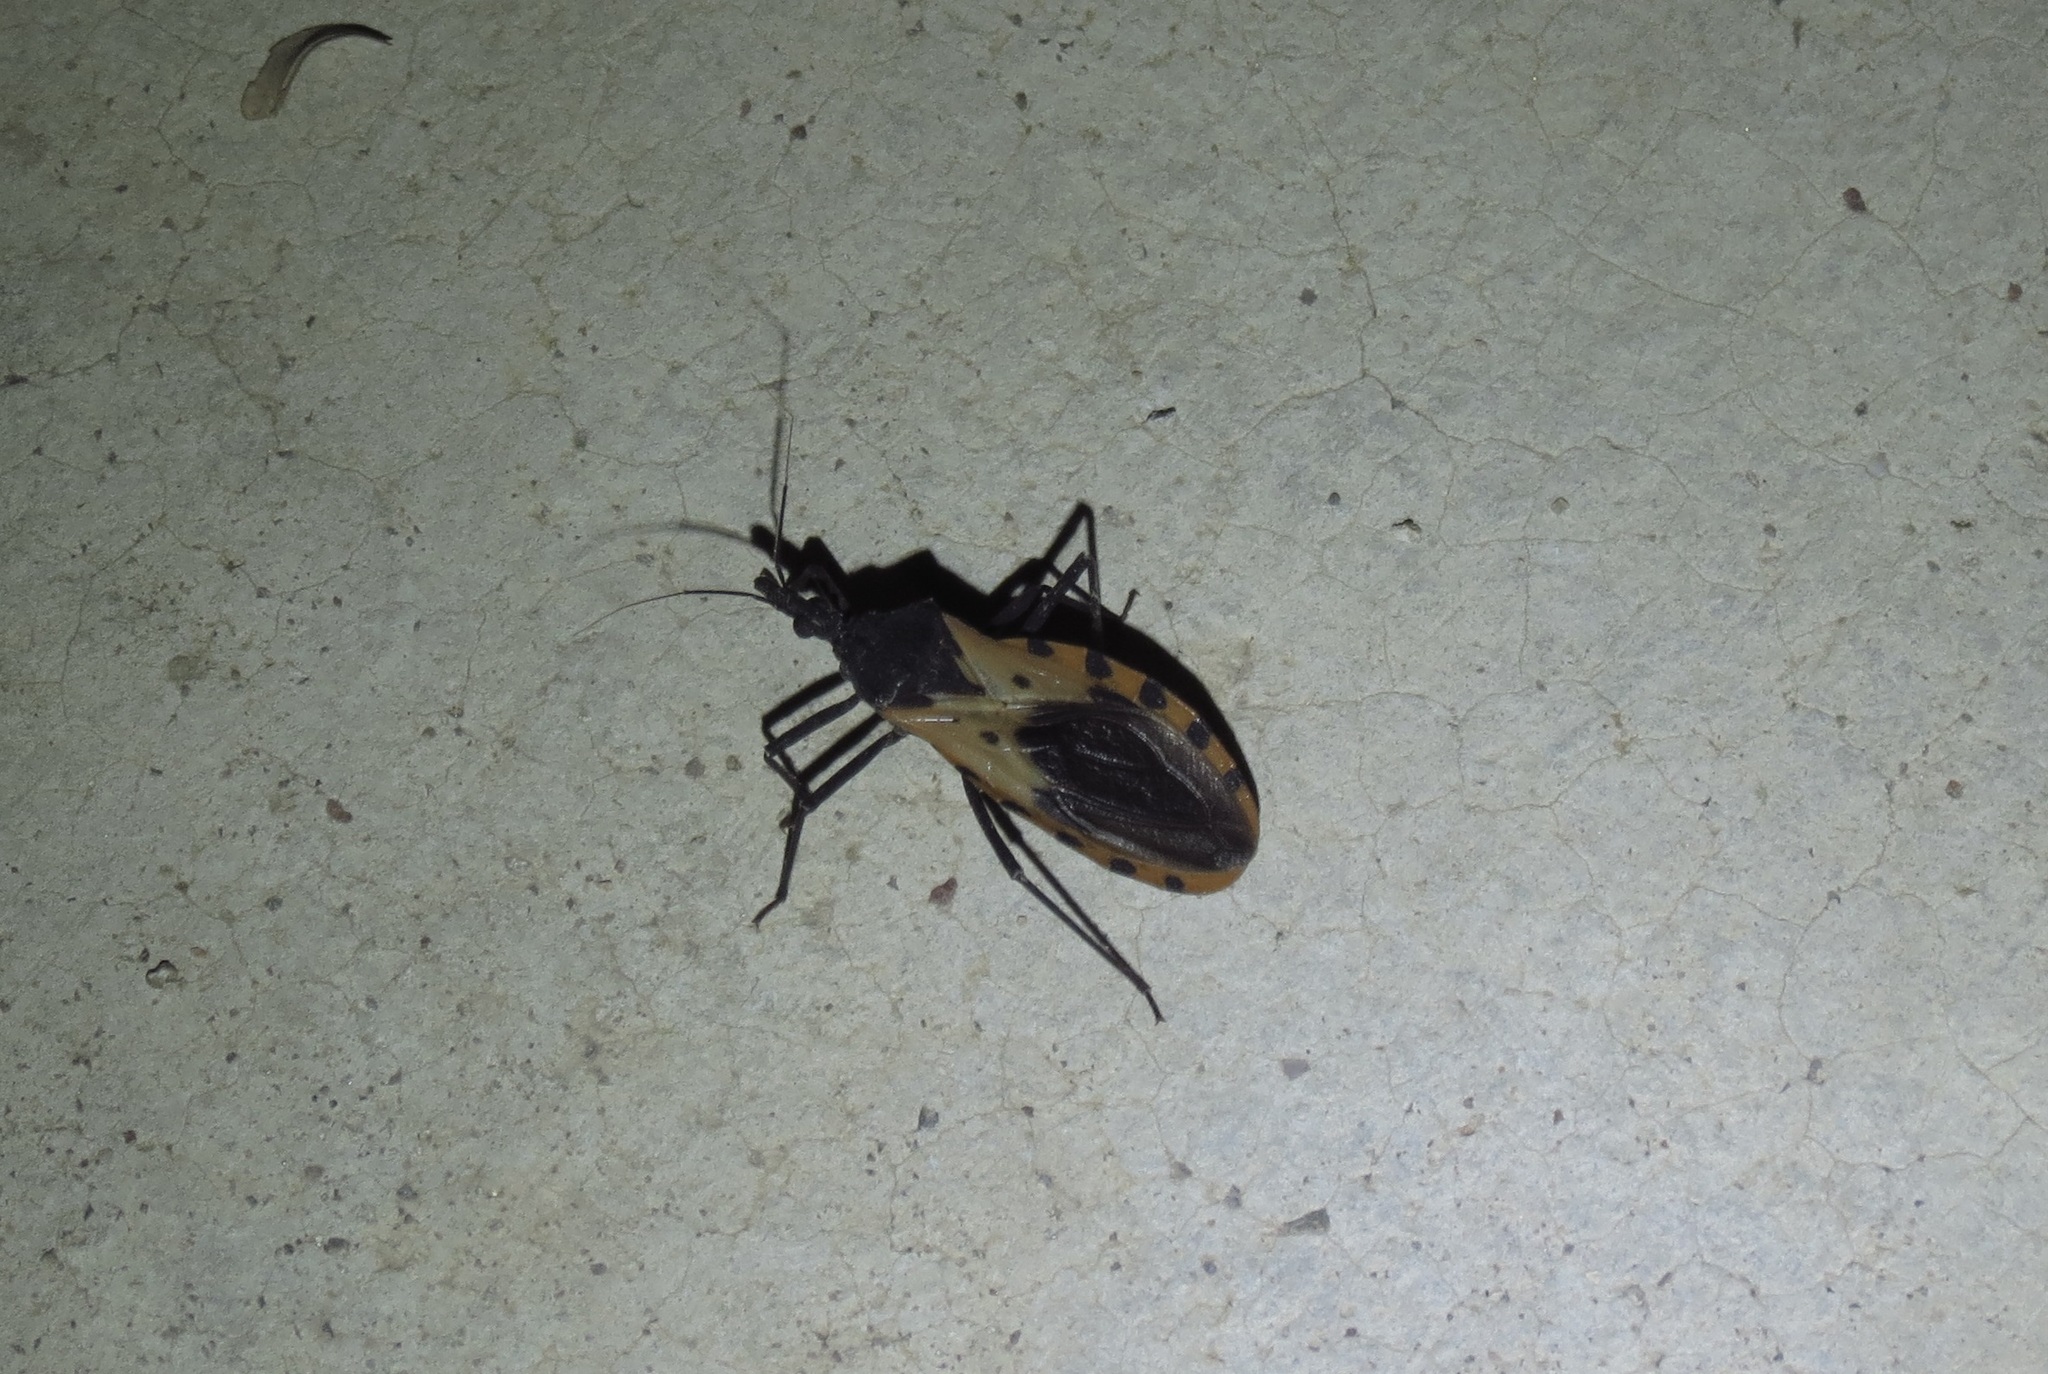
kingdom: Animalia
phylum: Arthropoda
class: Insecta
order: Hemiptera
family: Reduviidae
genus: Meccus
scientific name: Meccus dimidiatus
